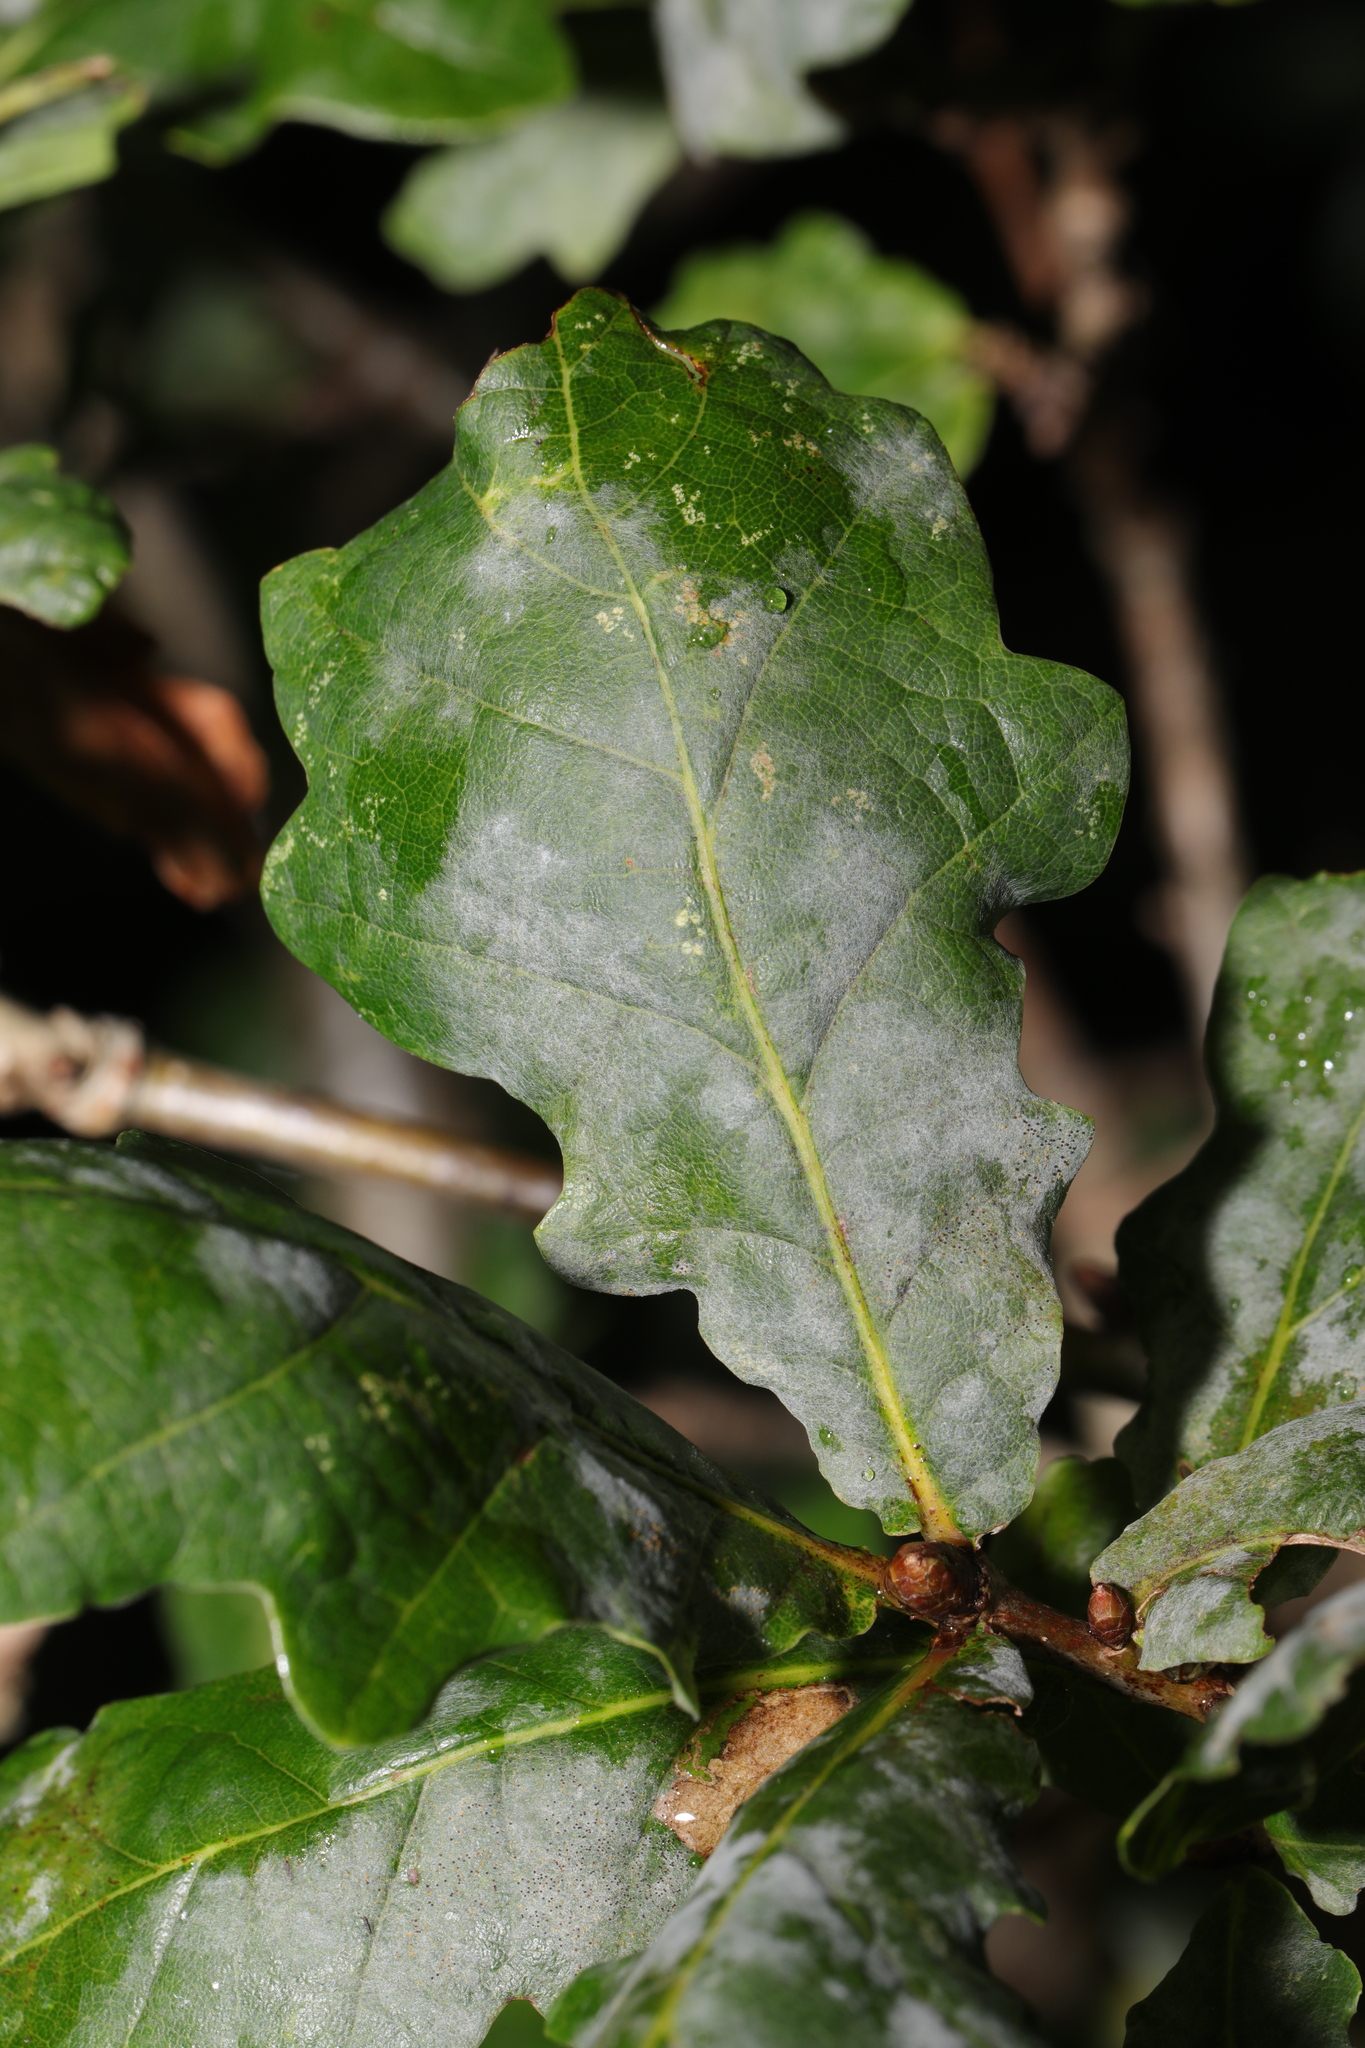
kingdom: Fungi
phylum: Ascomycota
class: Leotiomycetes
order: Helotiales
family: Erysiphaceae
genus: Erysiphe
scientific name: Erysiphe alphitoides
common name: Oak mildew
